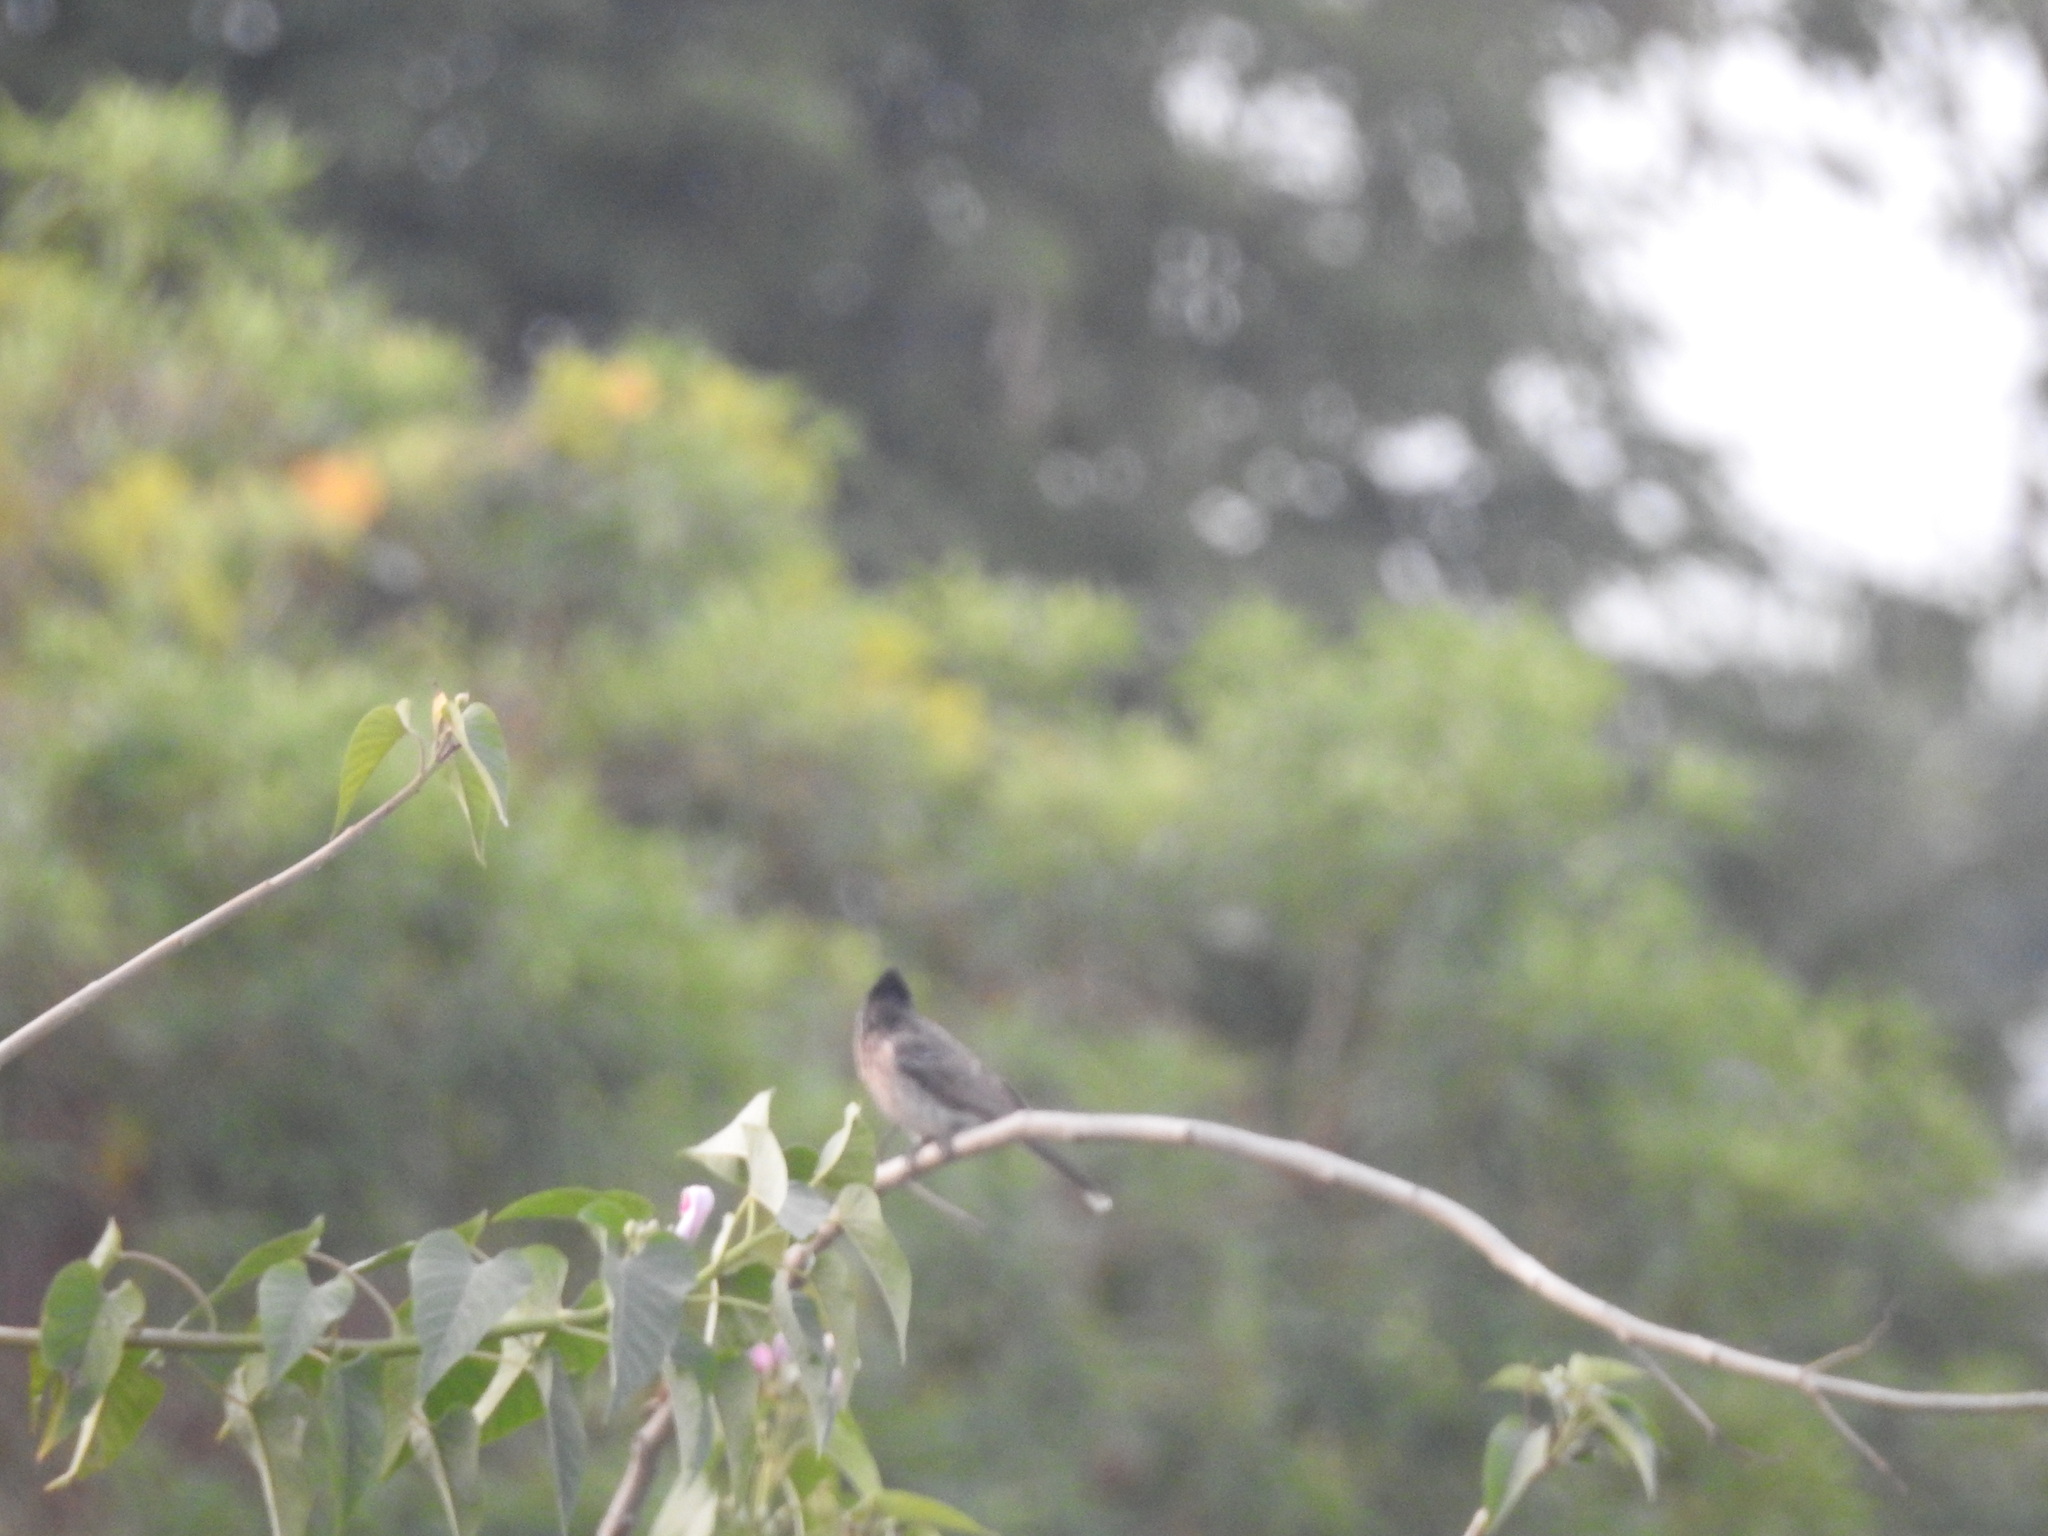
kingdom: Plantae
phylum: Tracheophyta
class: Magnoliopsida
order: Solanales
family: Convolvulaceae
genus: Ipomoea
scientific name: Ipomoea carnea
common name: Morning-glory
